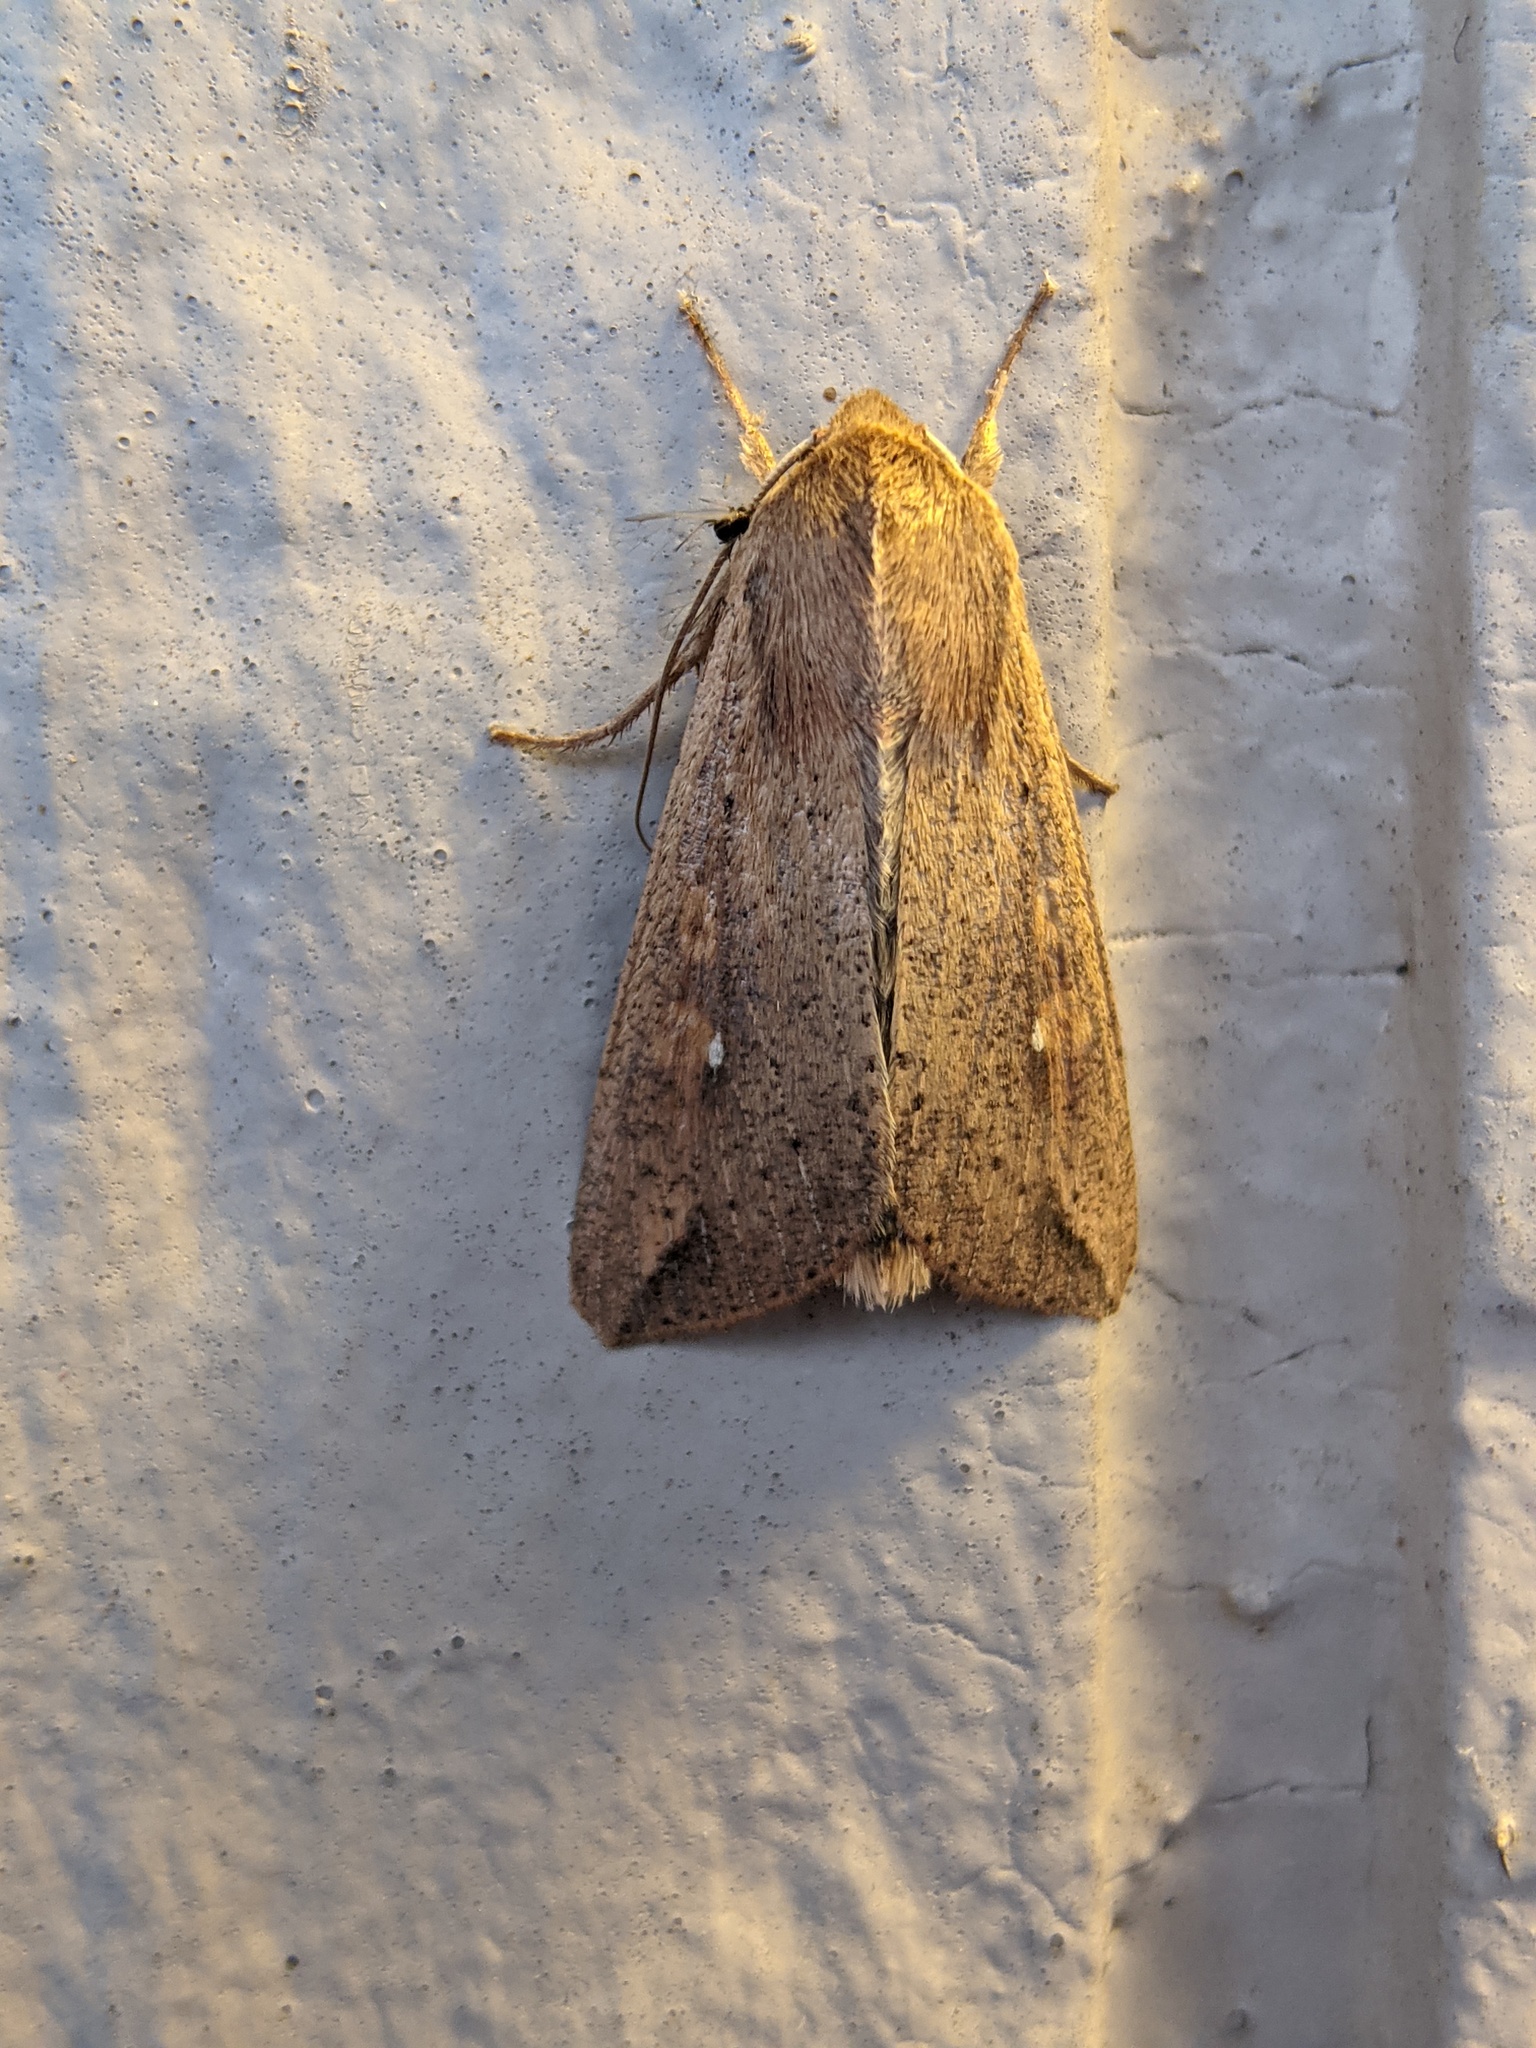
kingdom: Animalia
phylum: Arthropoda
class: Insecta
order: Lepidoptera
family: Noctuidae
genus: Mythimna
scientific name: Mythimna unipuncta
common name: White-speck
